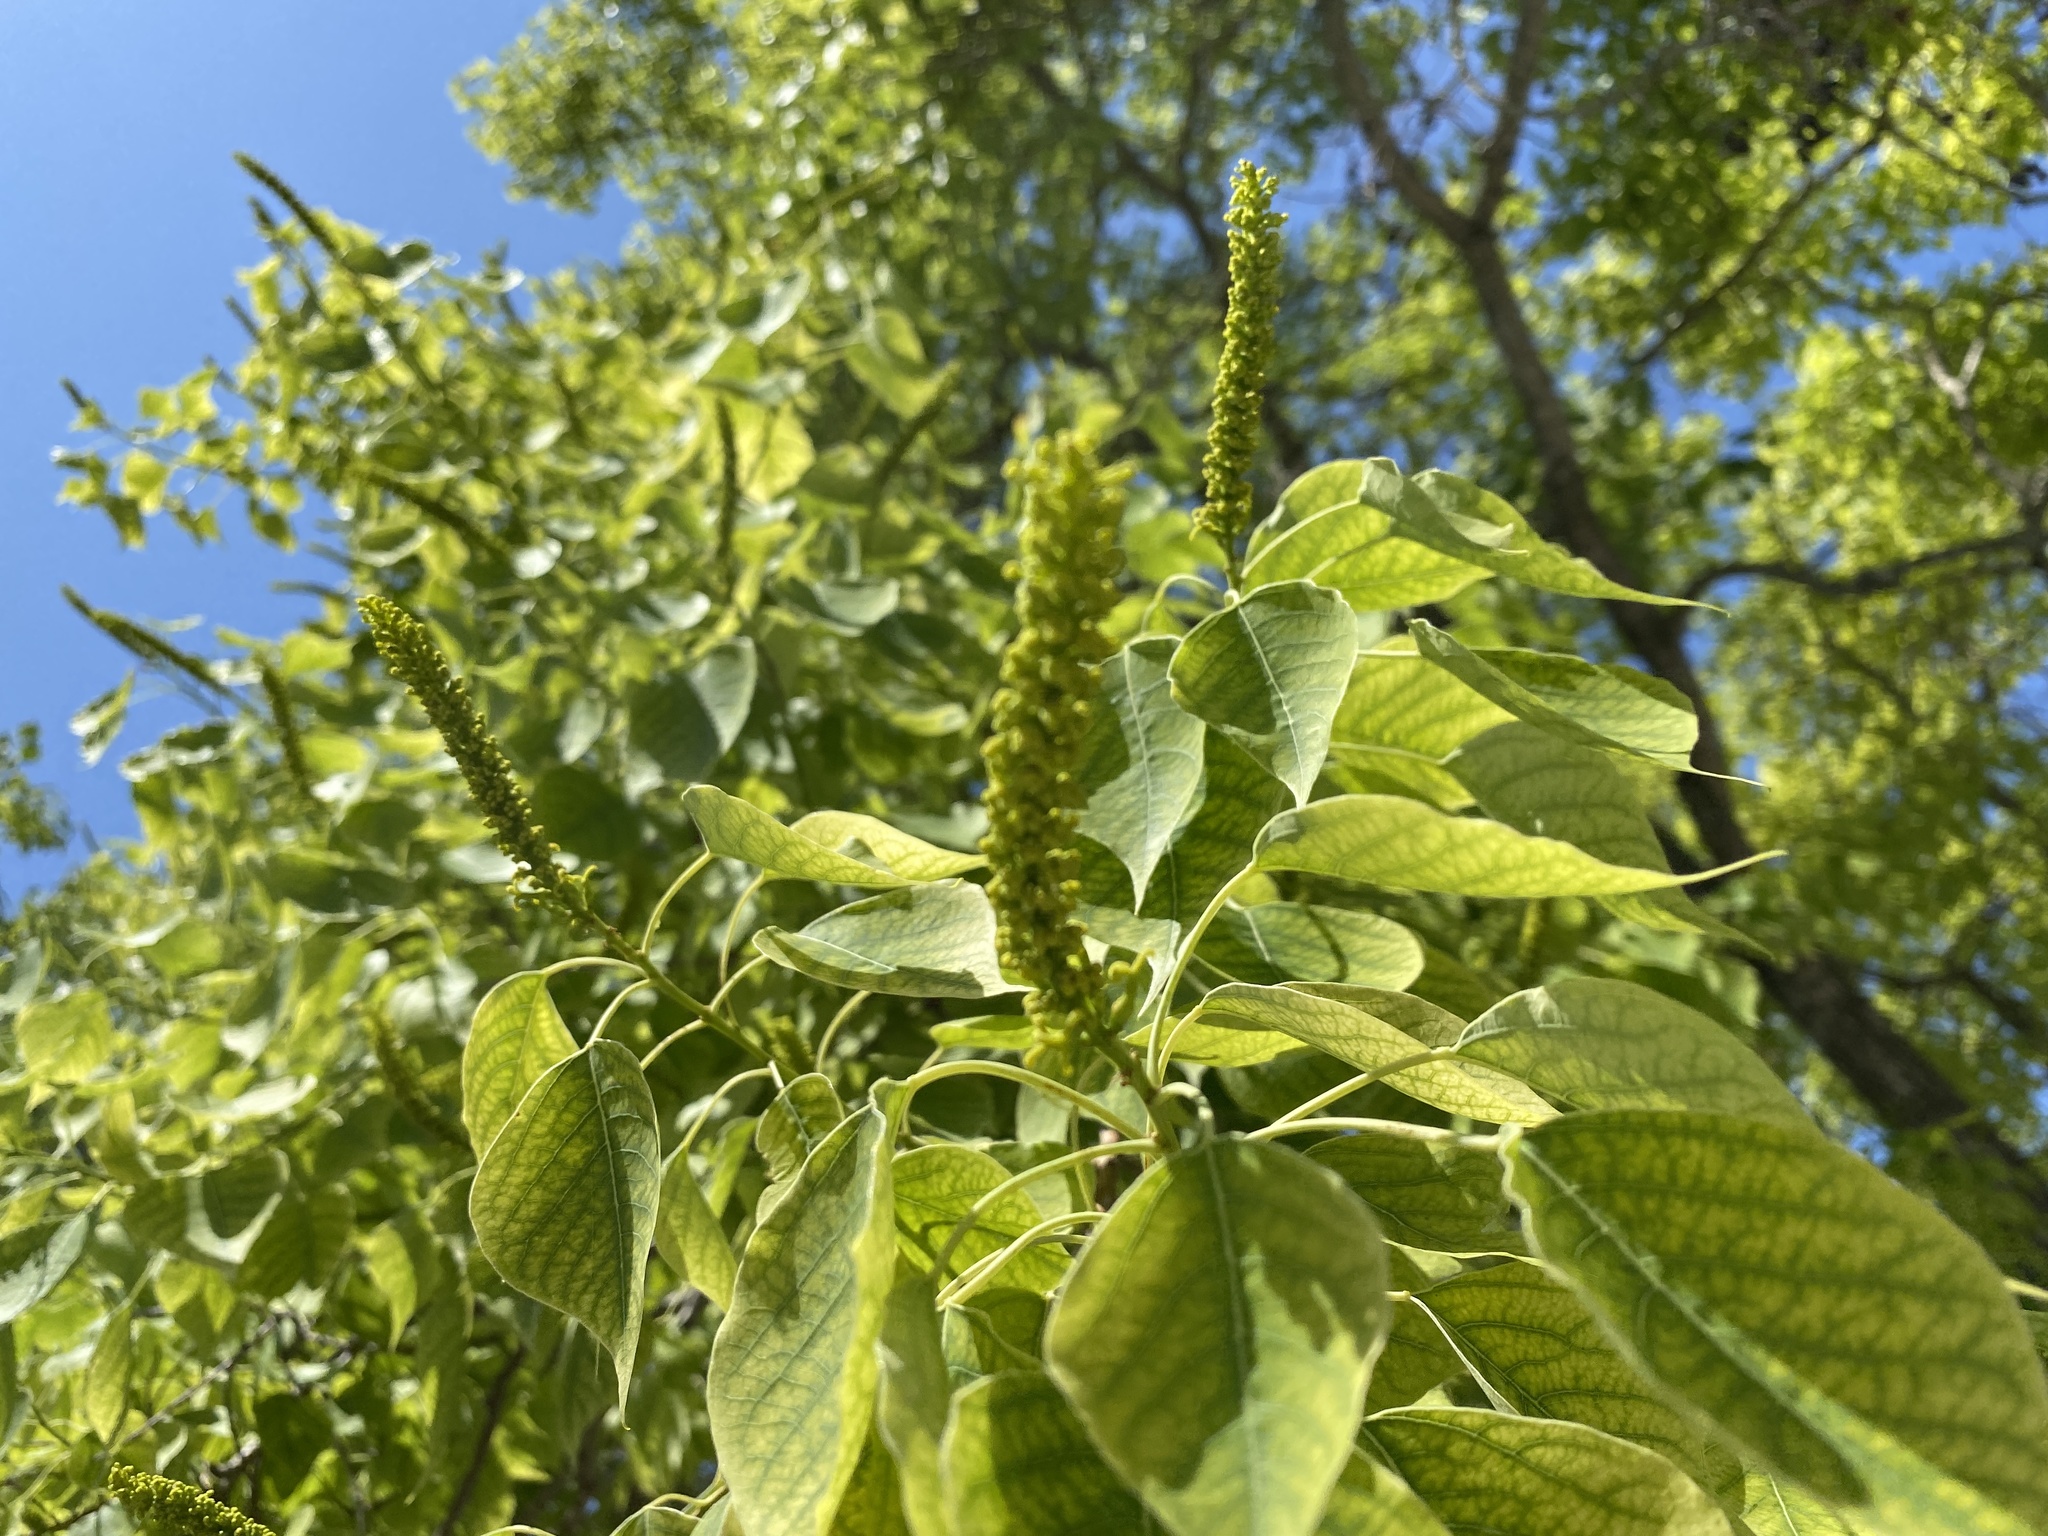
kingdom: Plantae
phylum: Tracheophyta
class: Magnoliopsida
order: Malpighiales
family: Euphorbiaceae
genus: Triadica
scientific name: Triadica sebifera
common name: Chinese tallow
